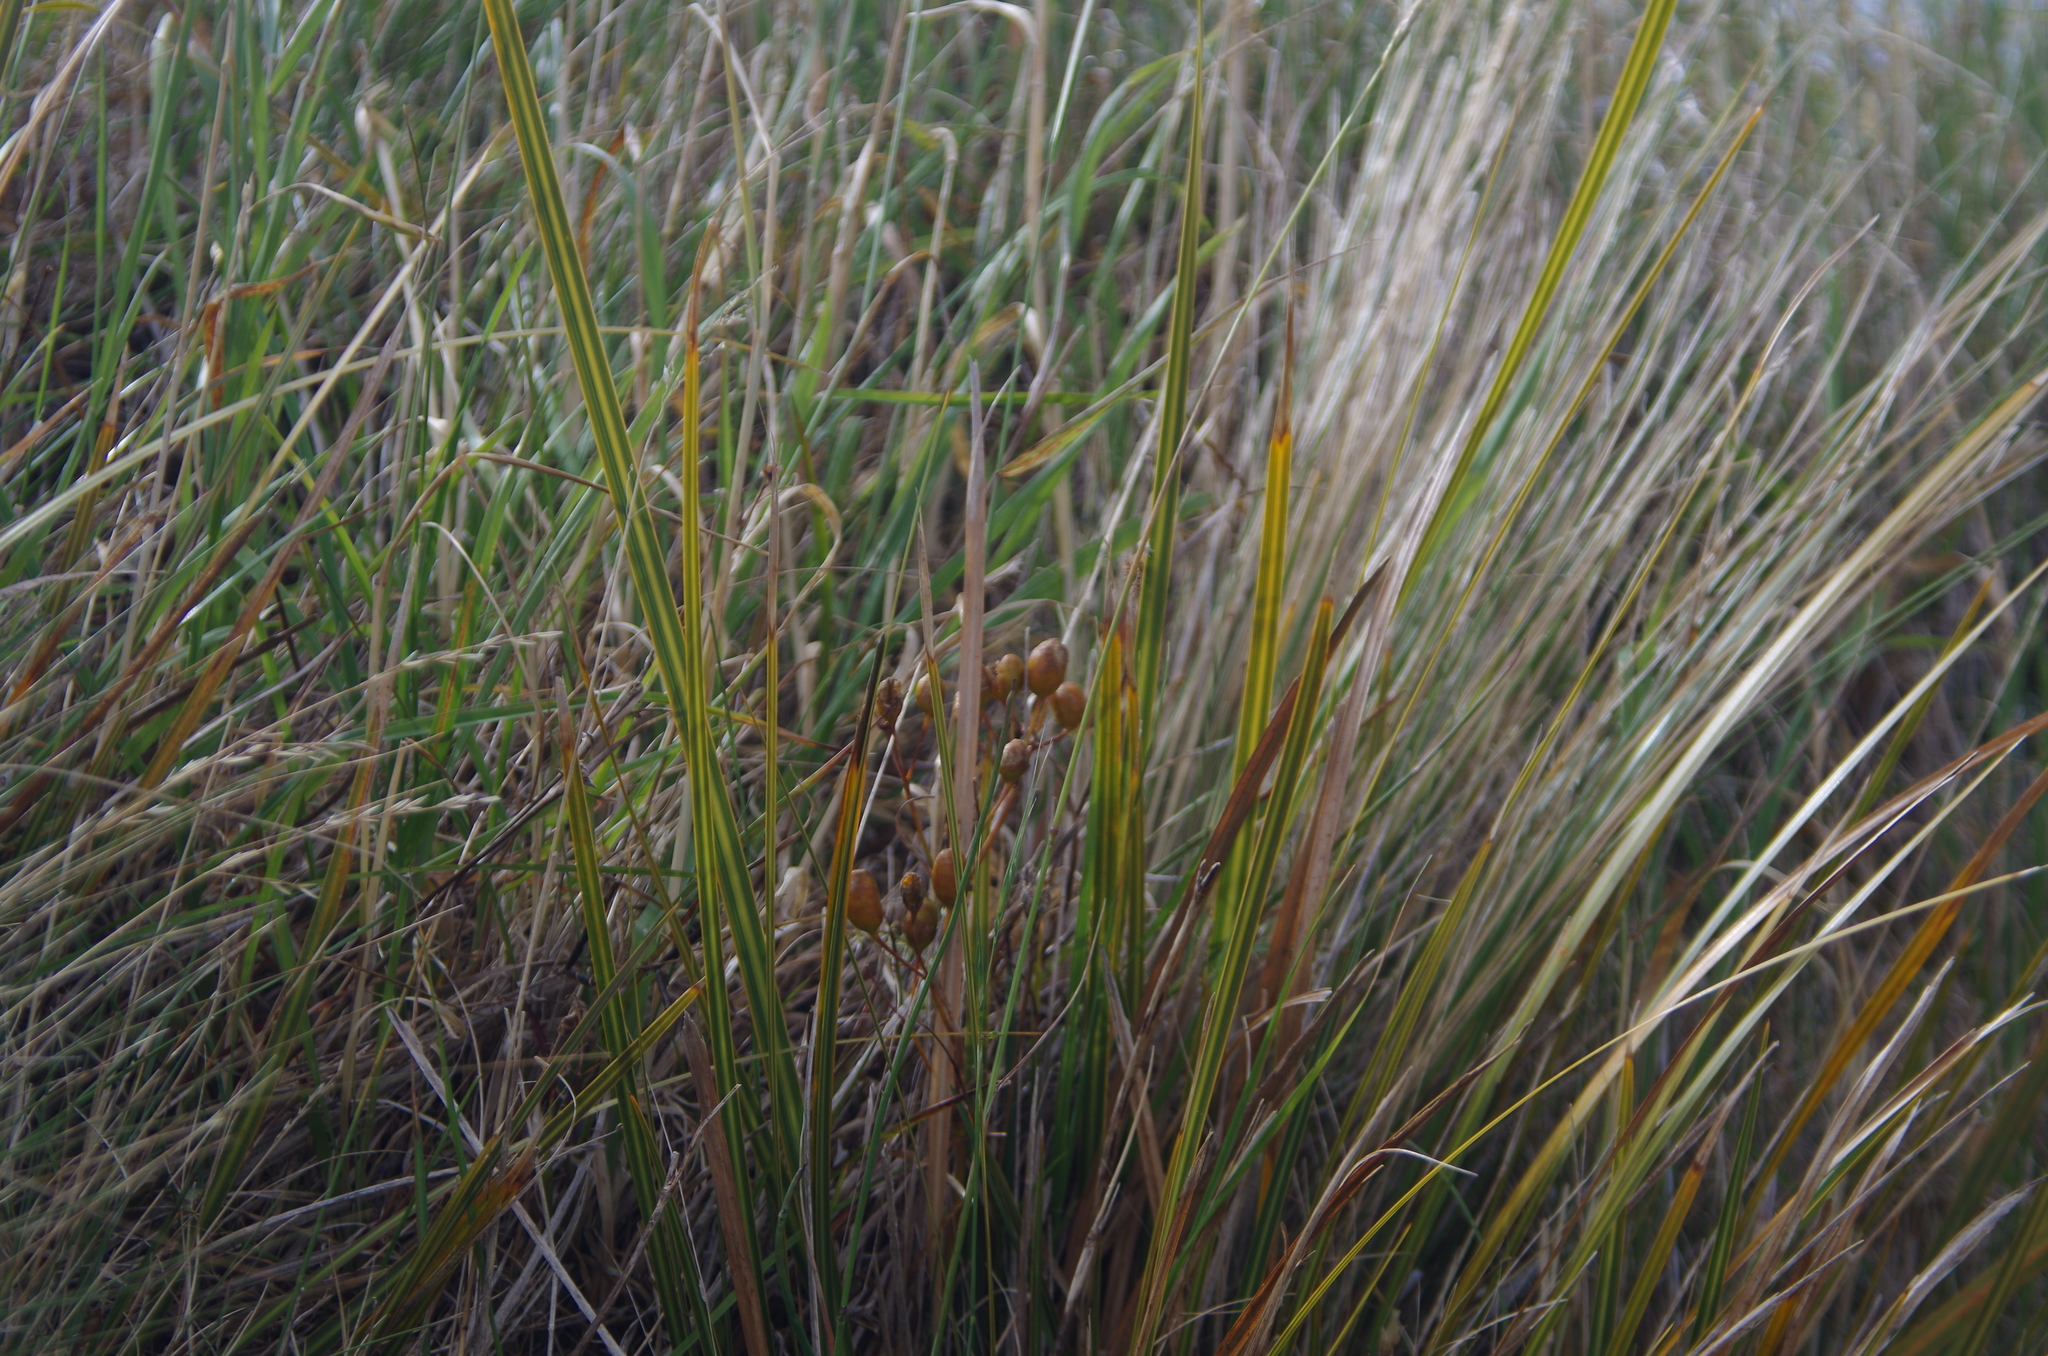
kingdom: Plantae
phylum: Tracheophyta
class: Liliopsida
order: Asparagales
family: Iridaceae
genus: Libertia
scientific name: Libertia ixioides
